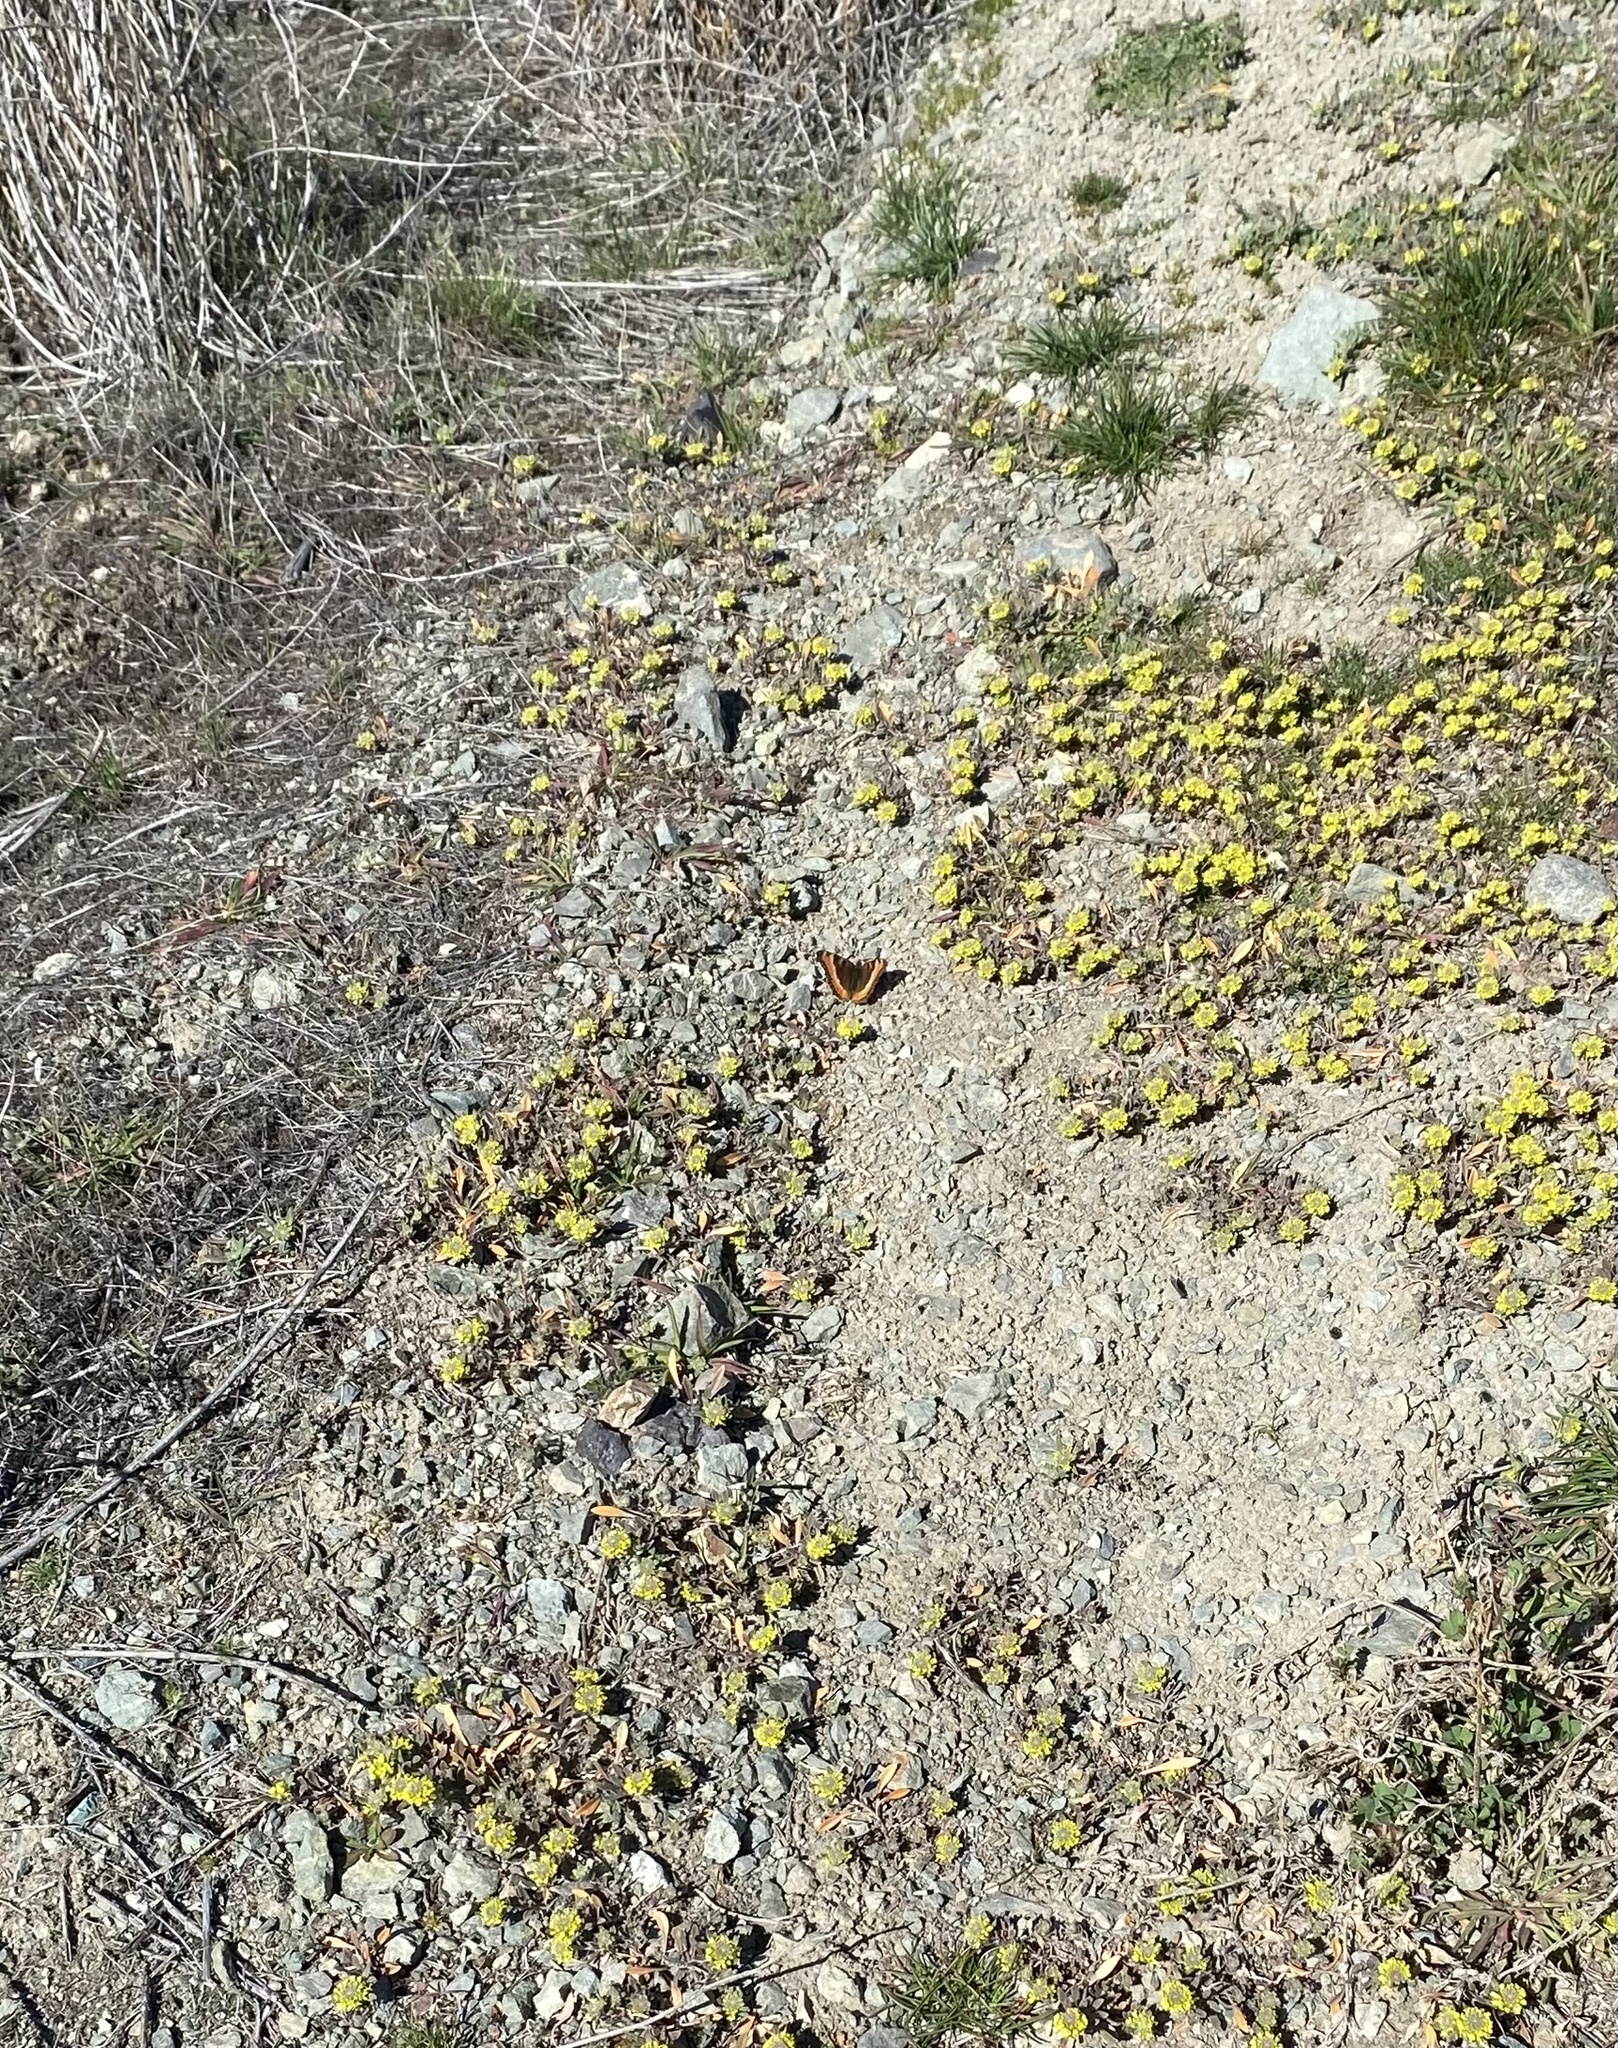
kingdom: Animalia
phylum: Arthropoda
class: Insecta
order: Lepidoptera
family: Nymphalidae
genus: Aglais
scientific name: Aglais milberti
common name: Milbert's tortoiseshell
